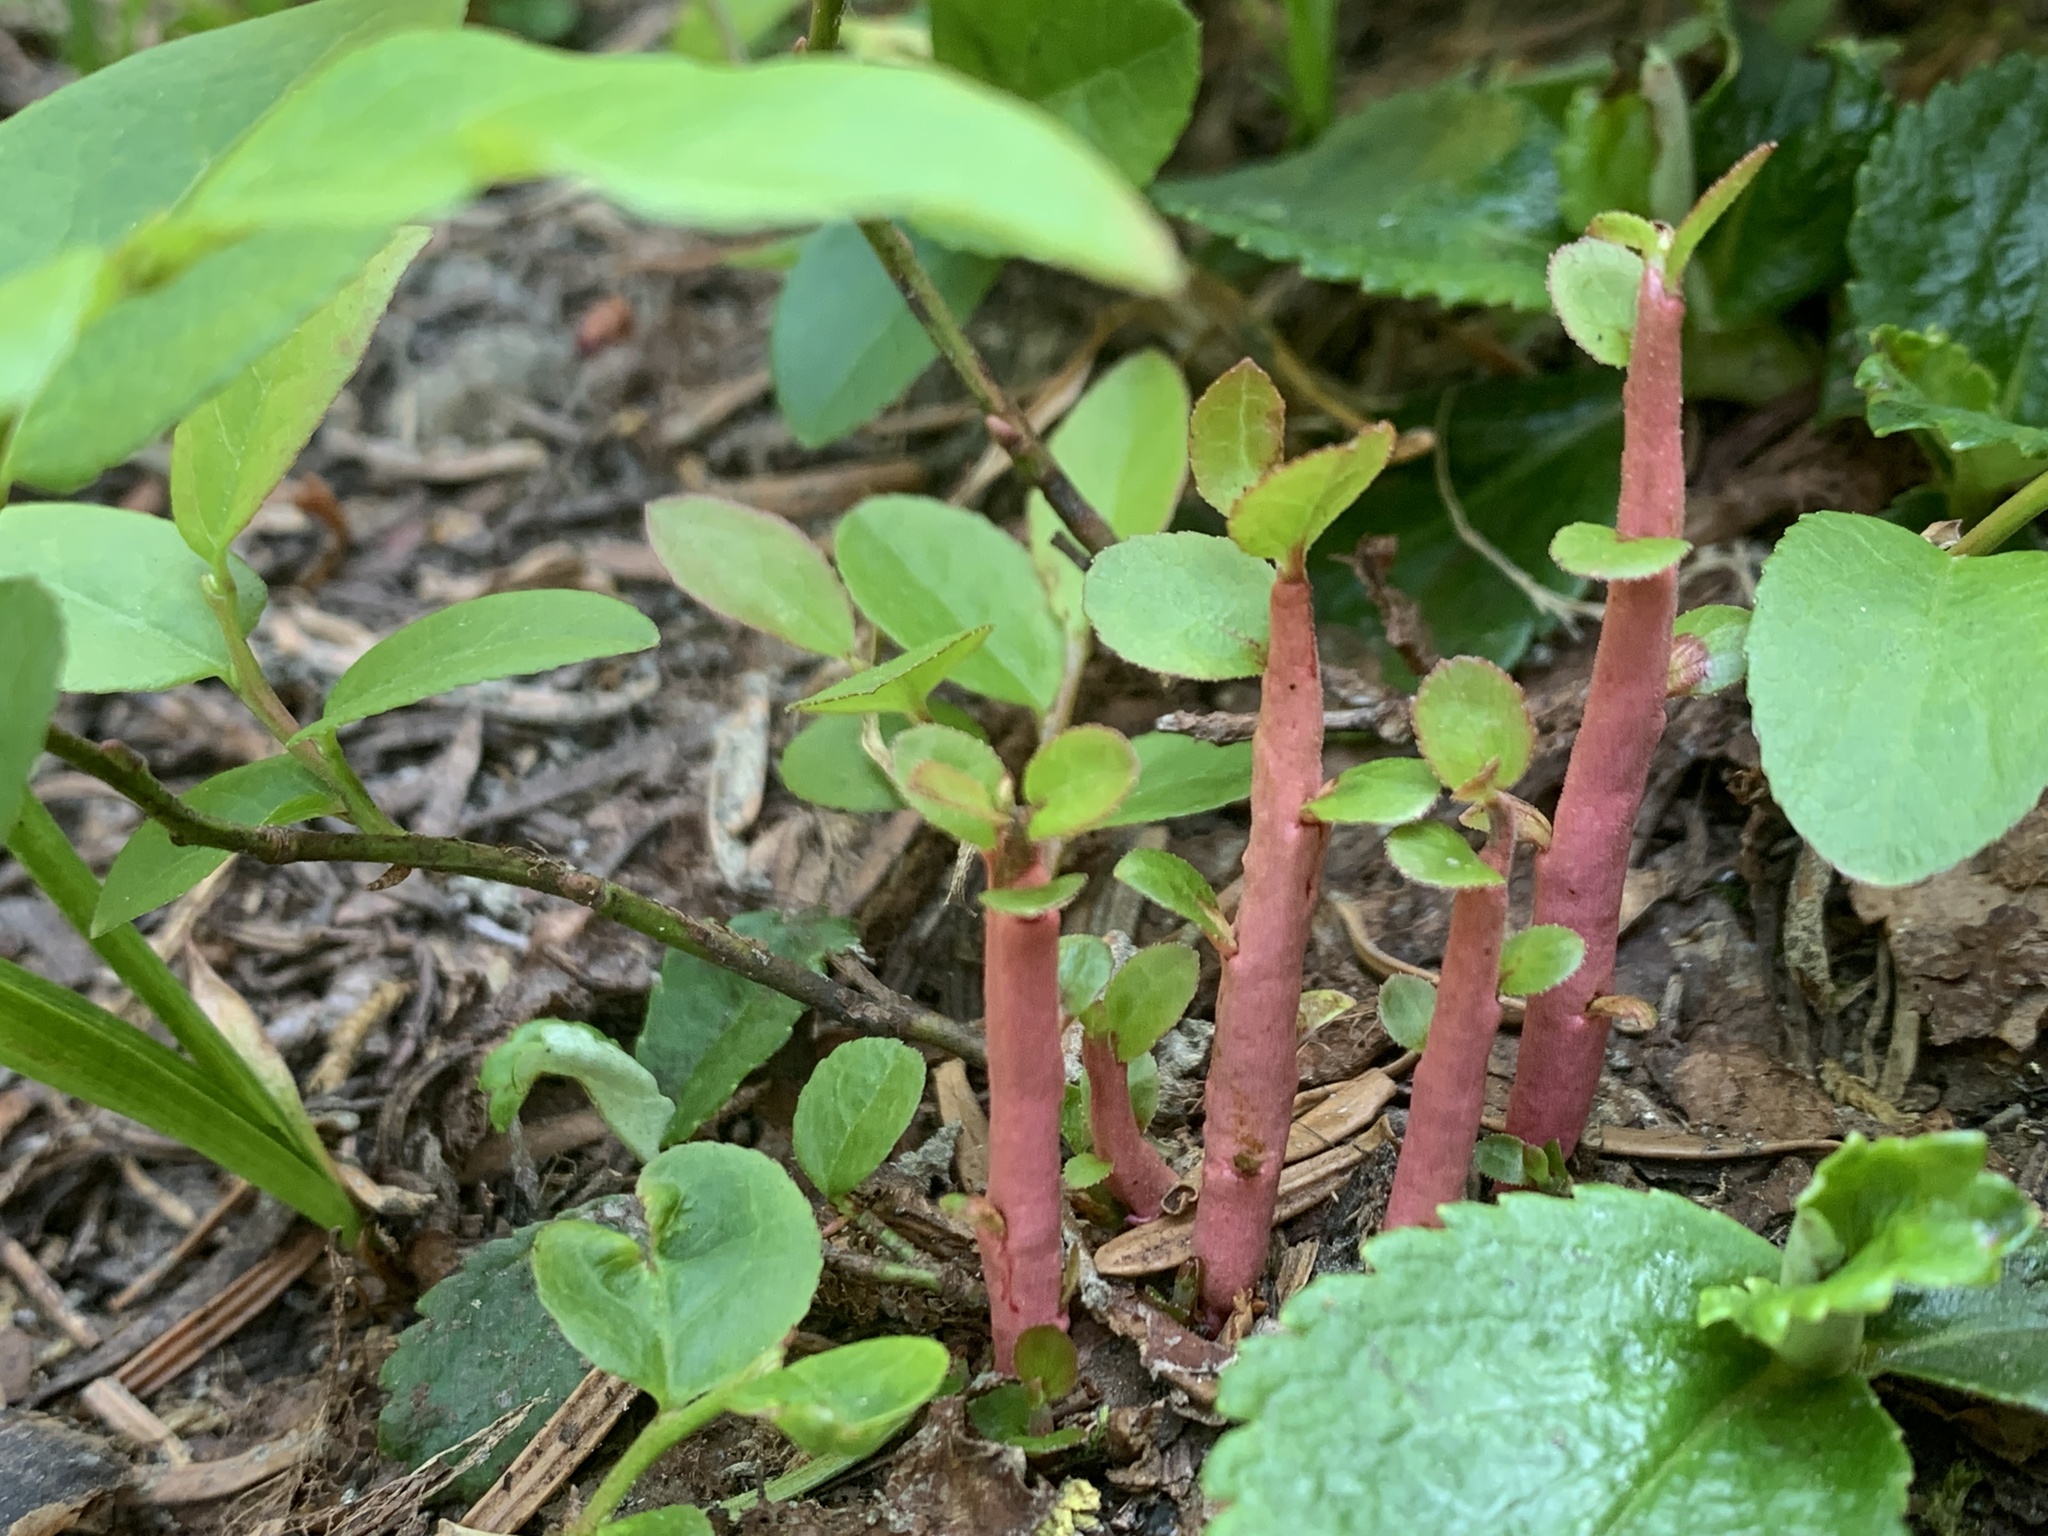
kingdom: Fungi
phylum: Basidiomycota
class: Pucciniomycetes
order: Pucciniales
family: Pucciniastraceae
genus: Calyptospora
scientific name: Calyptospora
